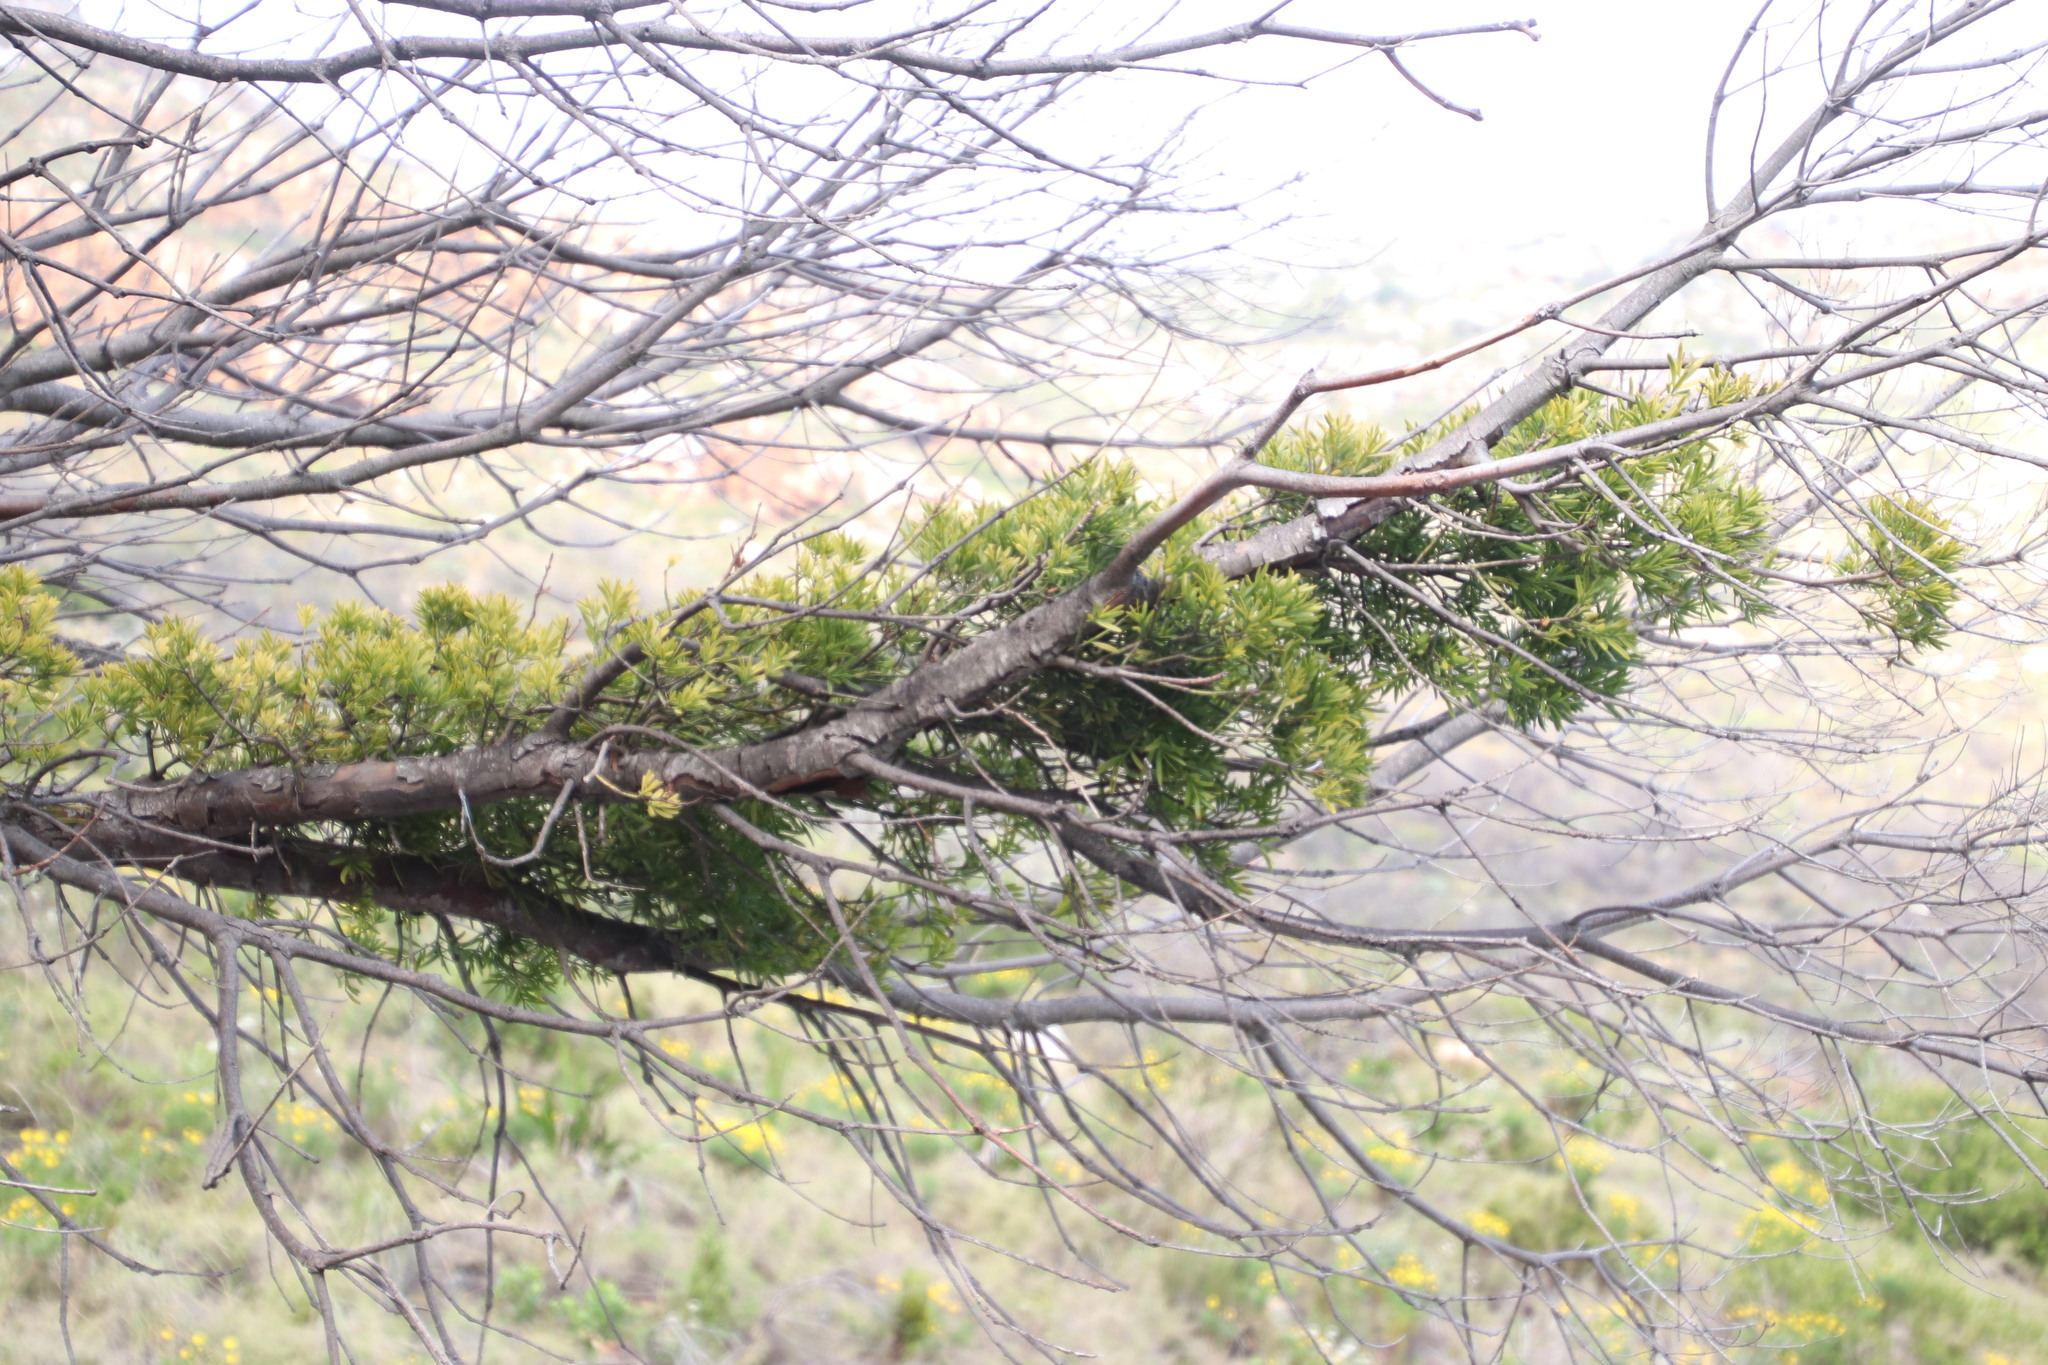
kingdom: Plantae
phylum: Tracheophyta
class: Pinopsida
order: Pinales
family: Podocarpaceae
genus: Afrocarpus
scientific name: Afrocarpus falcatus
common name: Bastard yellowwood
